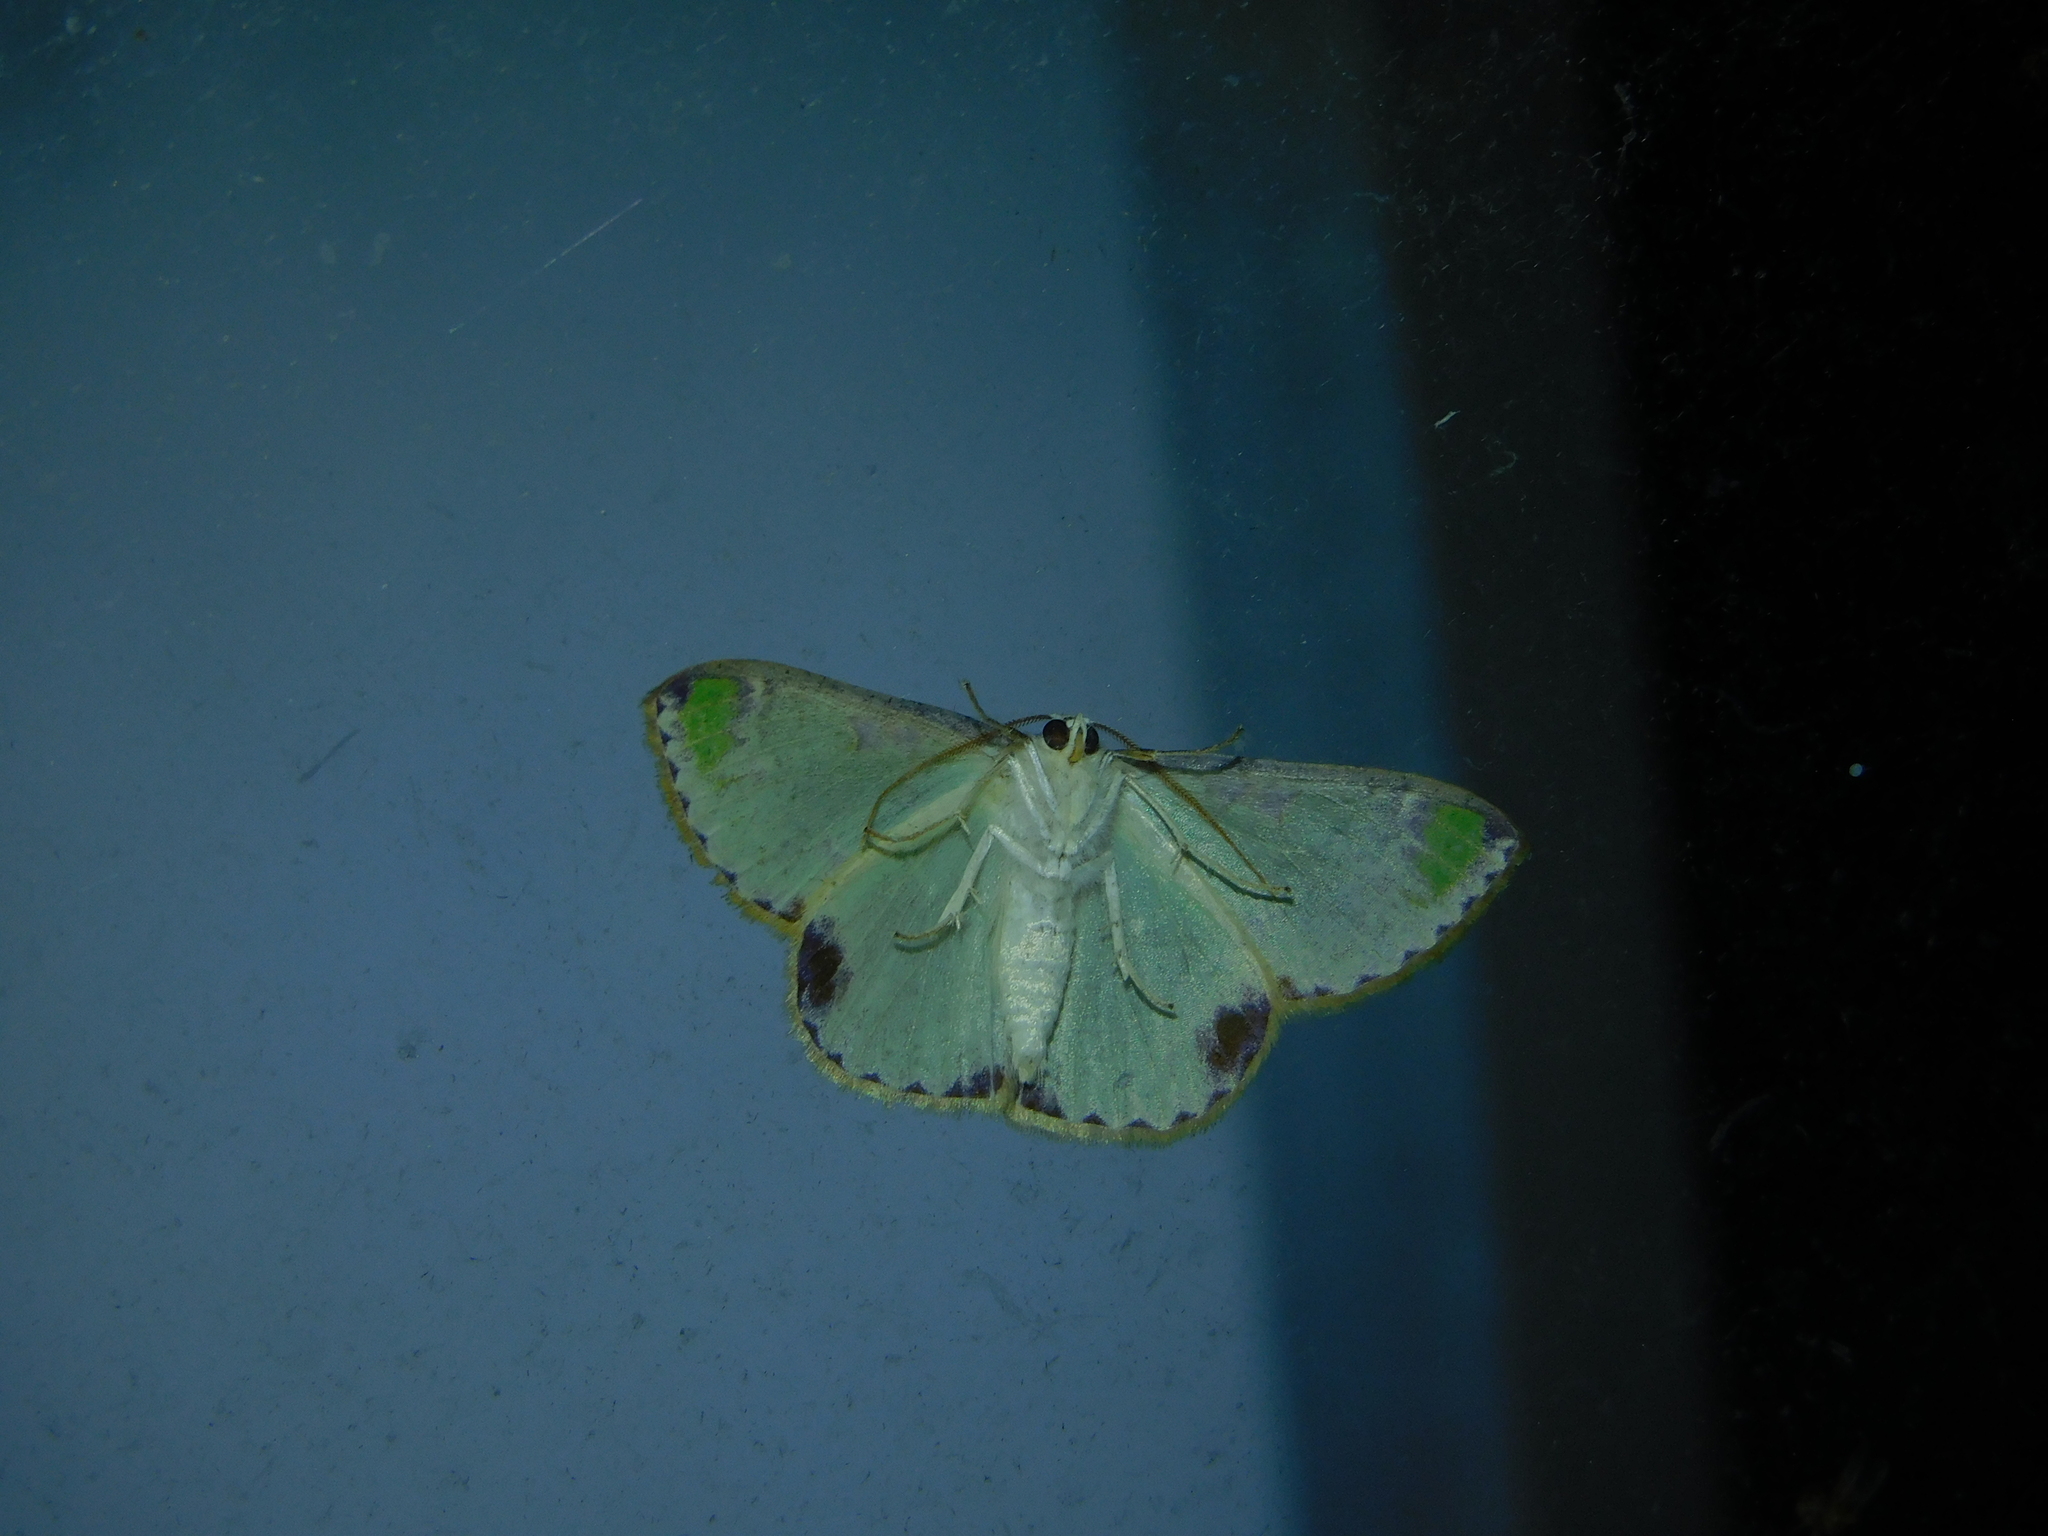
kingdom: Animalia
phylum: Arthropoda
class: Insecta
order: Lepidoptera
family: Geometridae
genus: Eucyclodes
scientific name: Eucyclodes buprestaria
